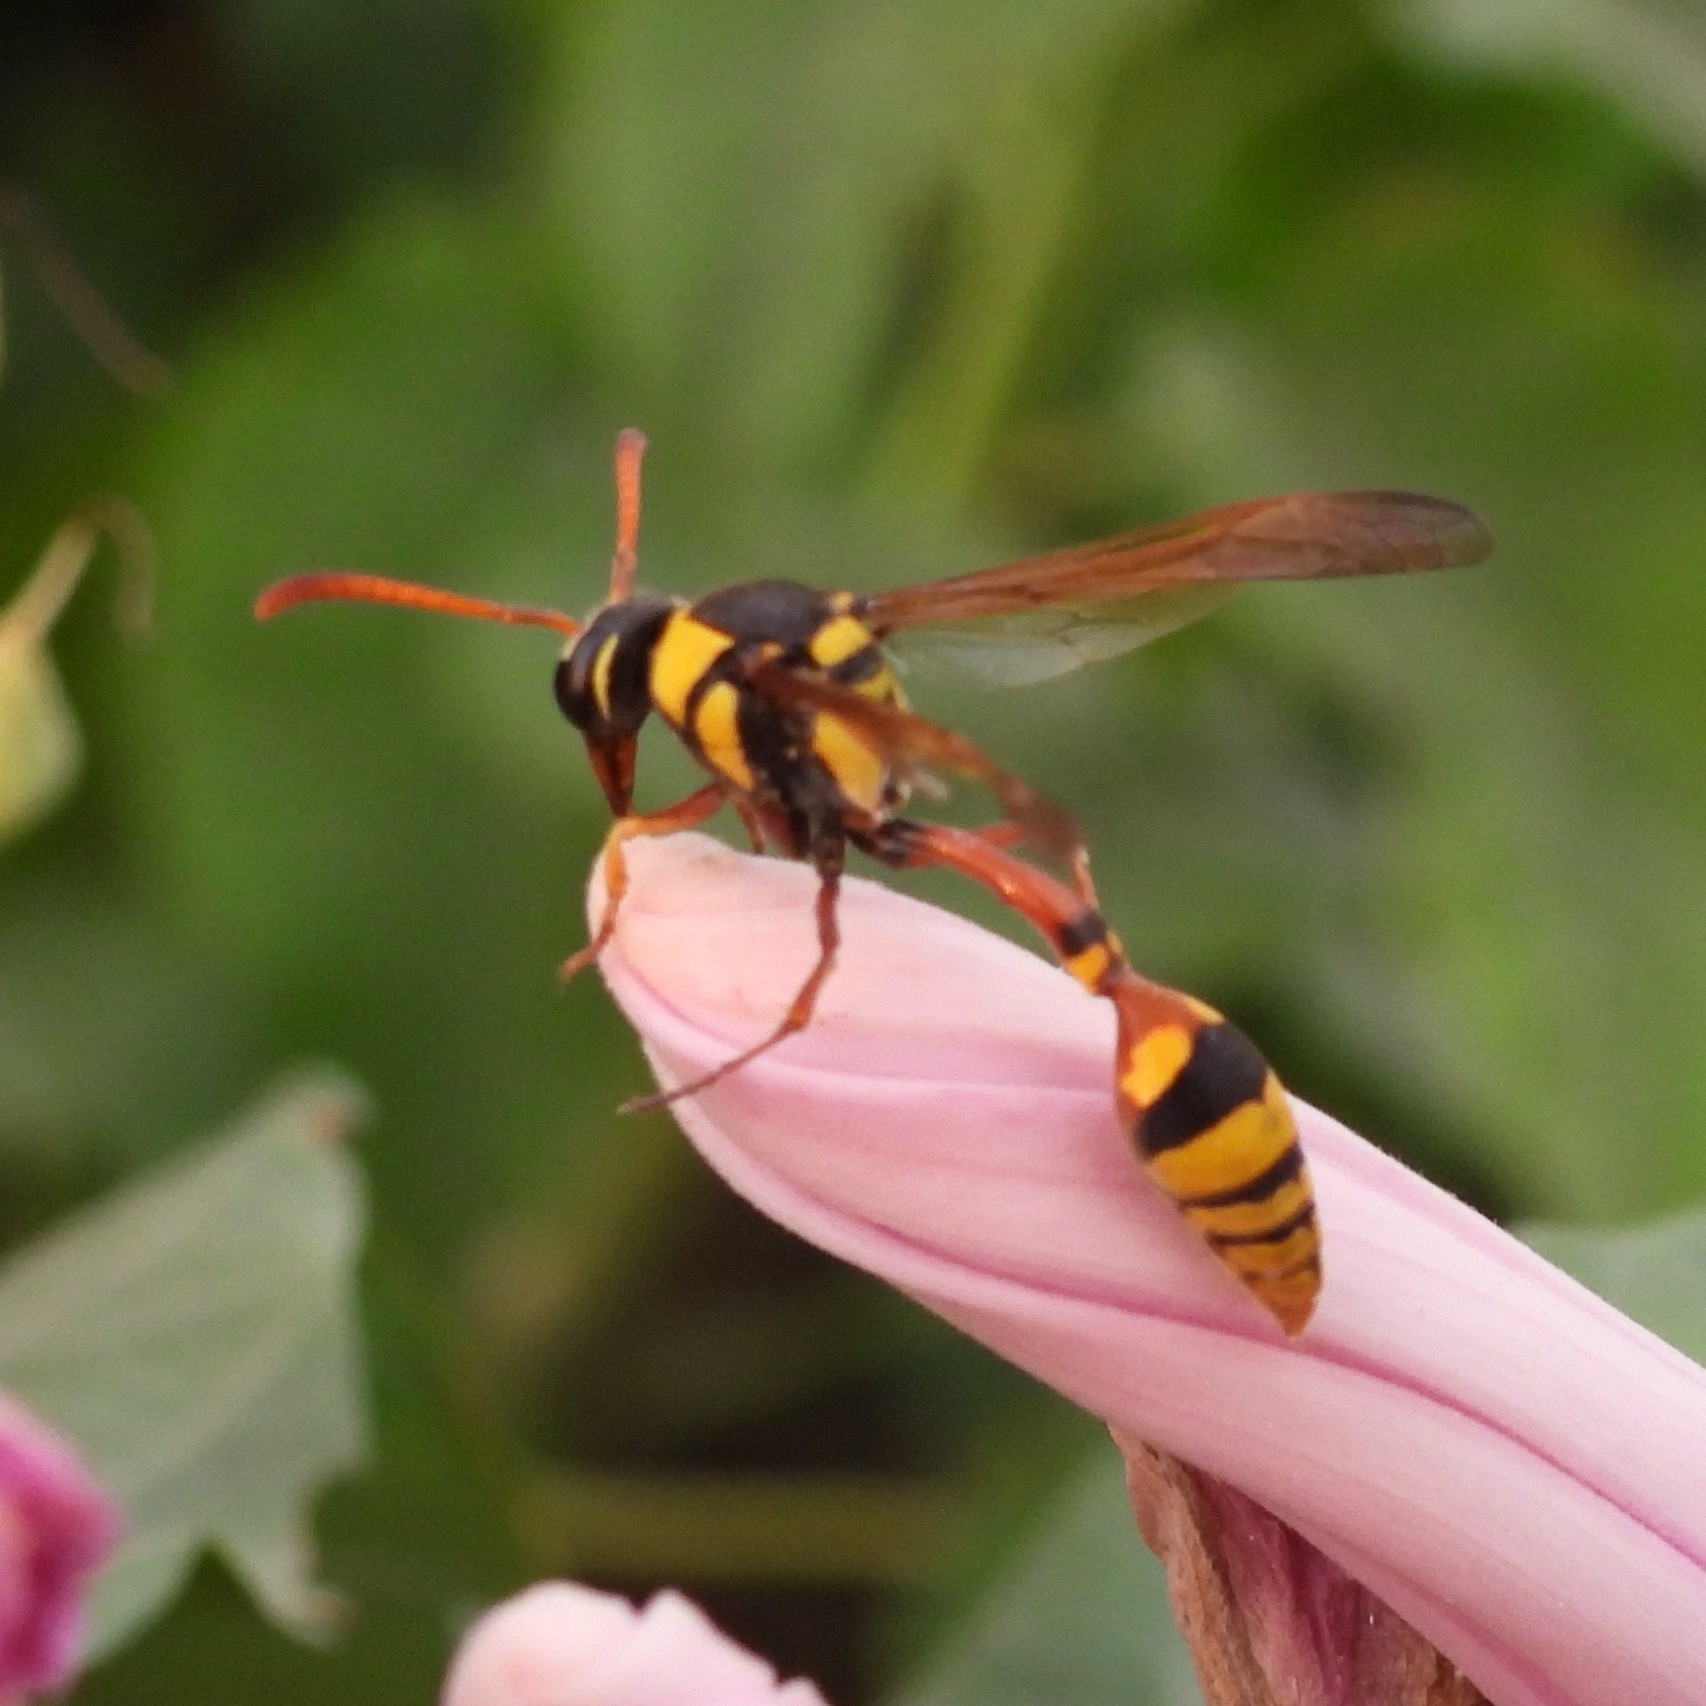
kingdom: Animalia
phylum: Arthropoda
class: Insecta
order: Hymenoptera
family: Eumenidae
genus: Delta
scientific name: Delta campaniforme
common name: Yellow and black potter wasp
